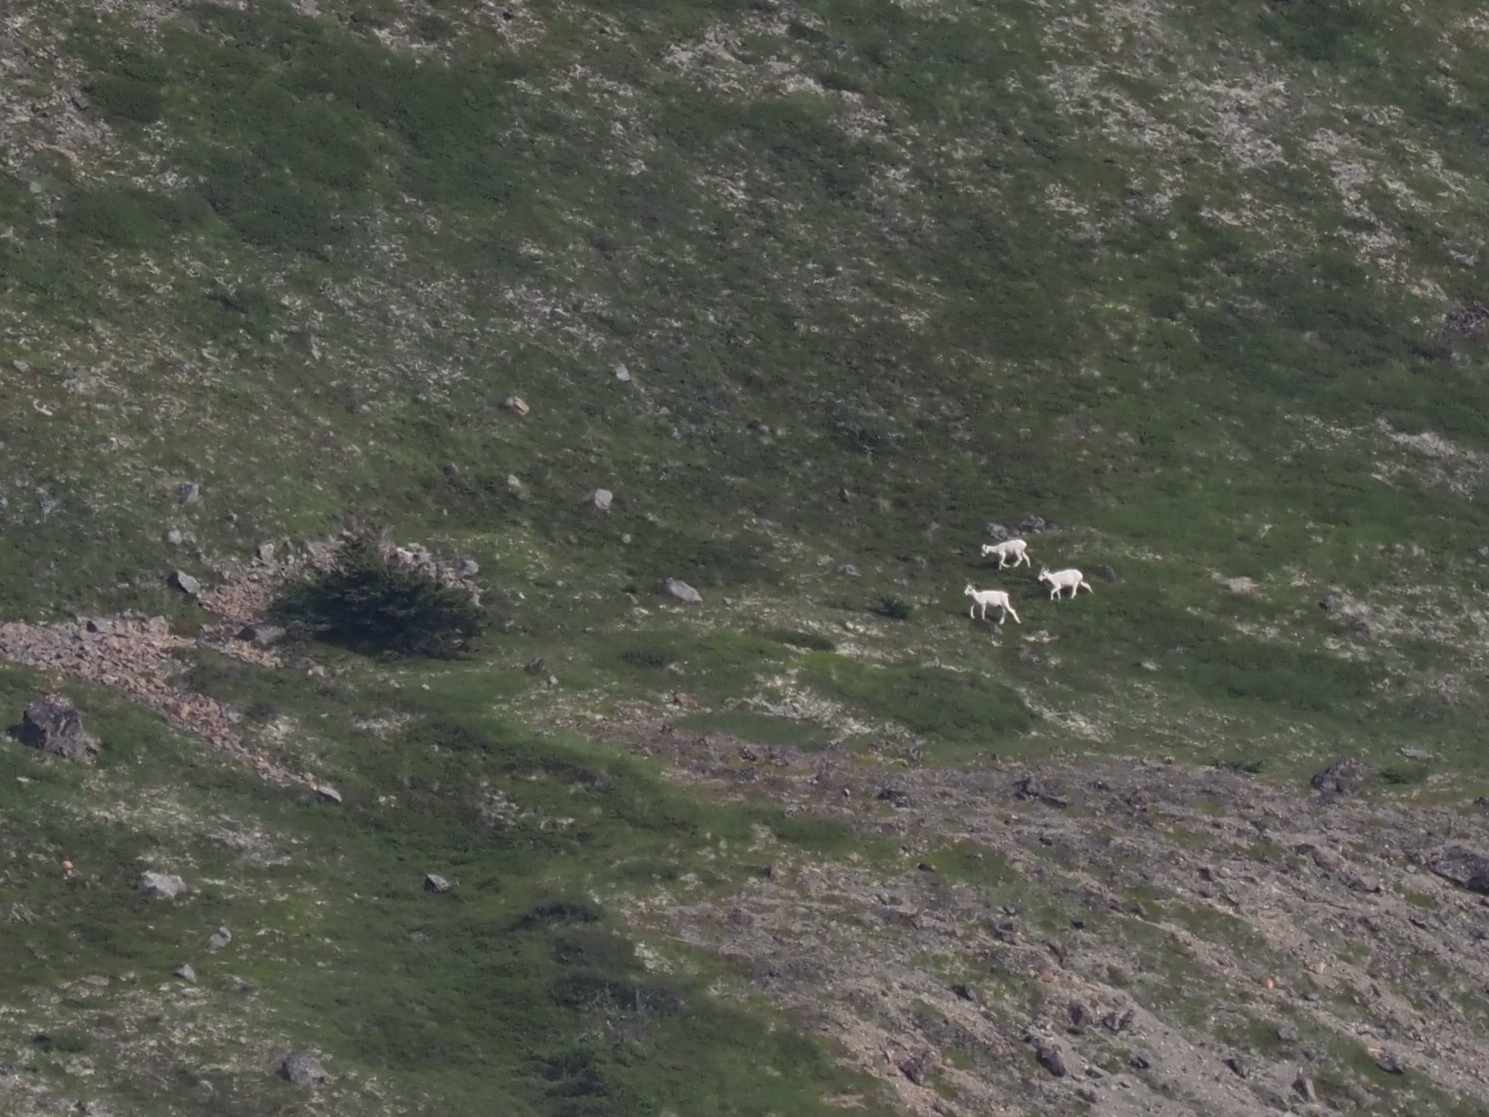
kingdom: Animalia
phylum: Chordata
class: Mammalia
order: Artiodactyla
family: Bovidae
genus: Ovis
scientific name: Ovis dalli
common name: Dall's sheep
